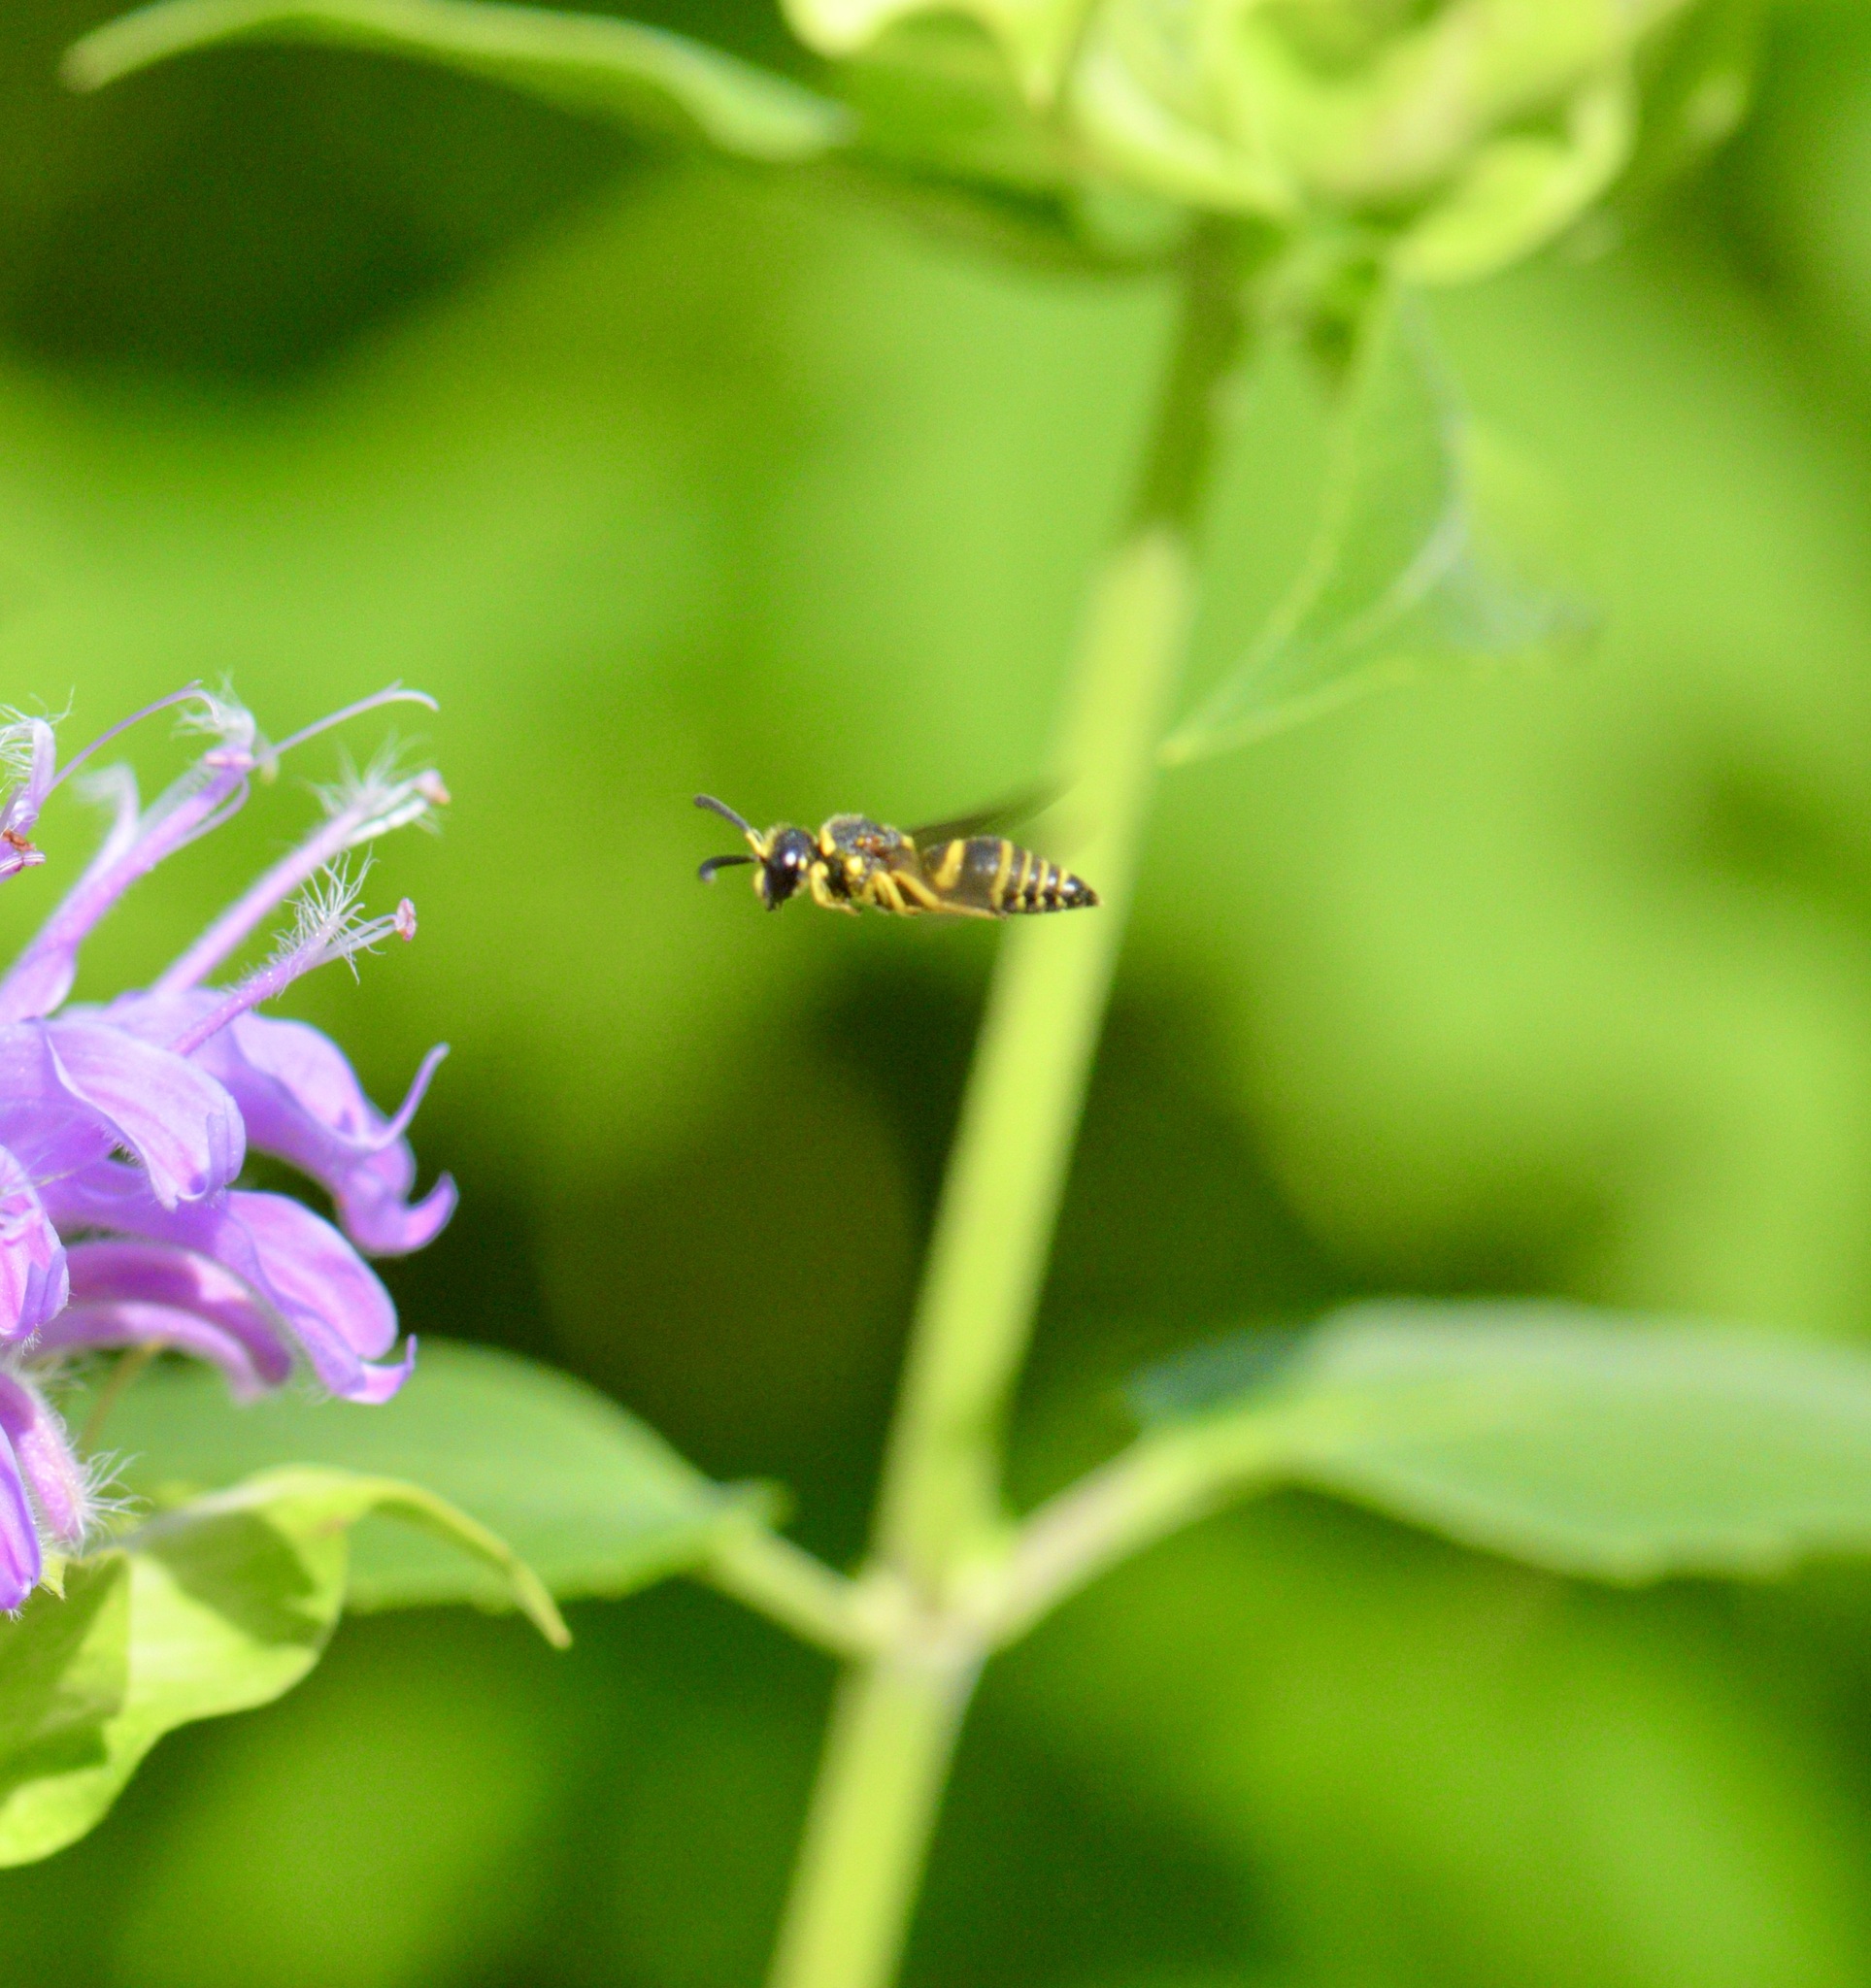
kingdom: Animalia
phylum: Arthropoda
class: Insecta
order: Hymenoptera
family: Eumenidae
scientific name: Eumenidae
